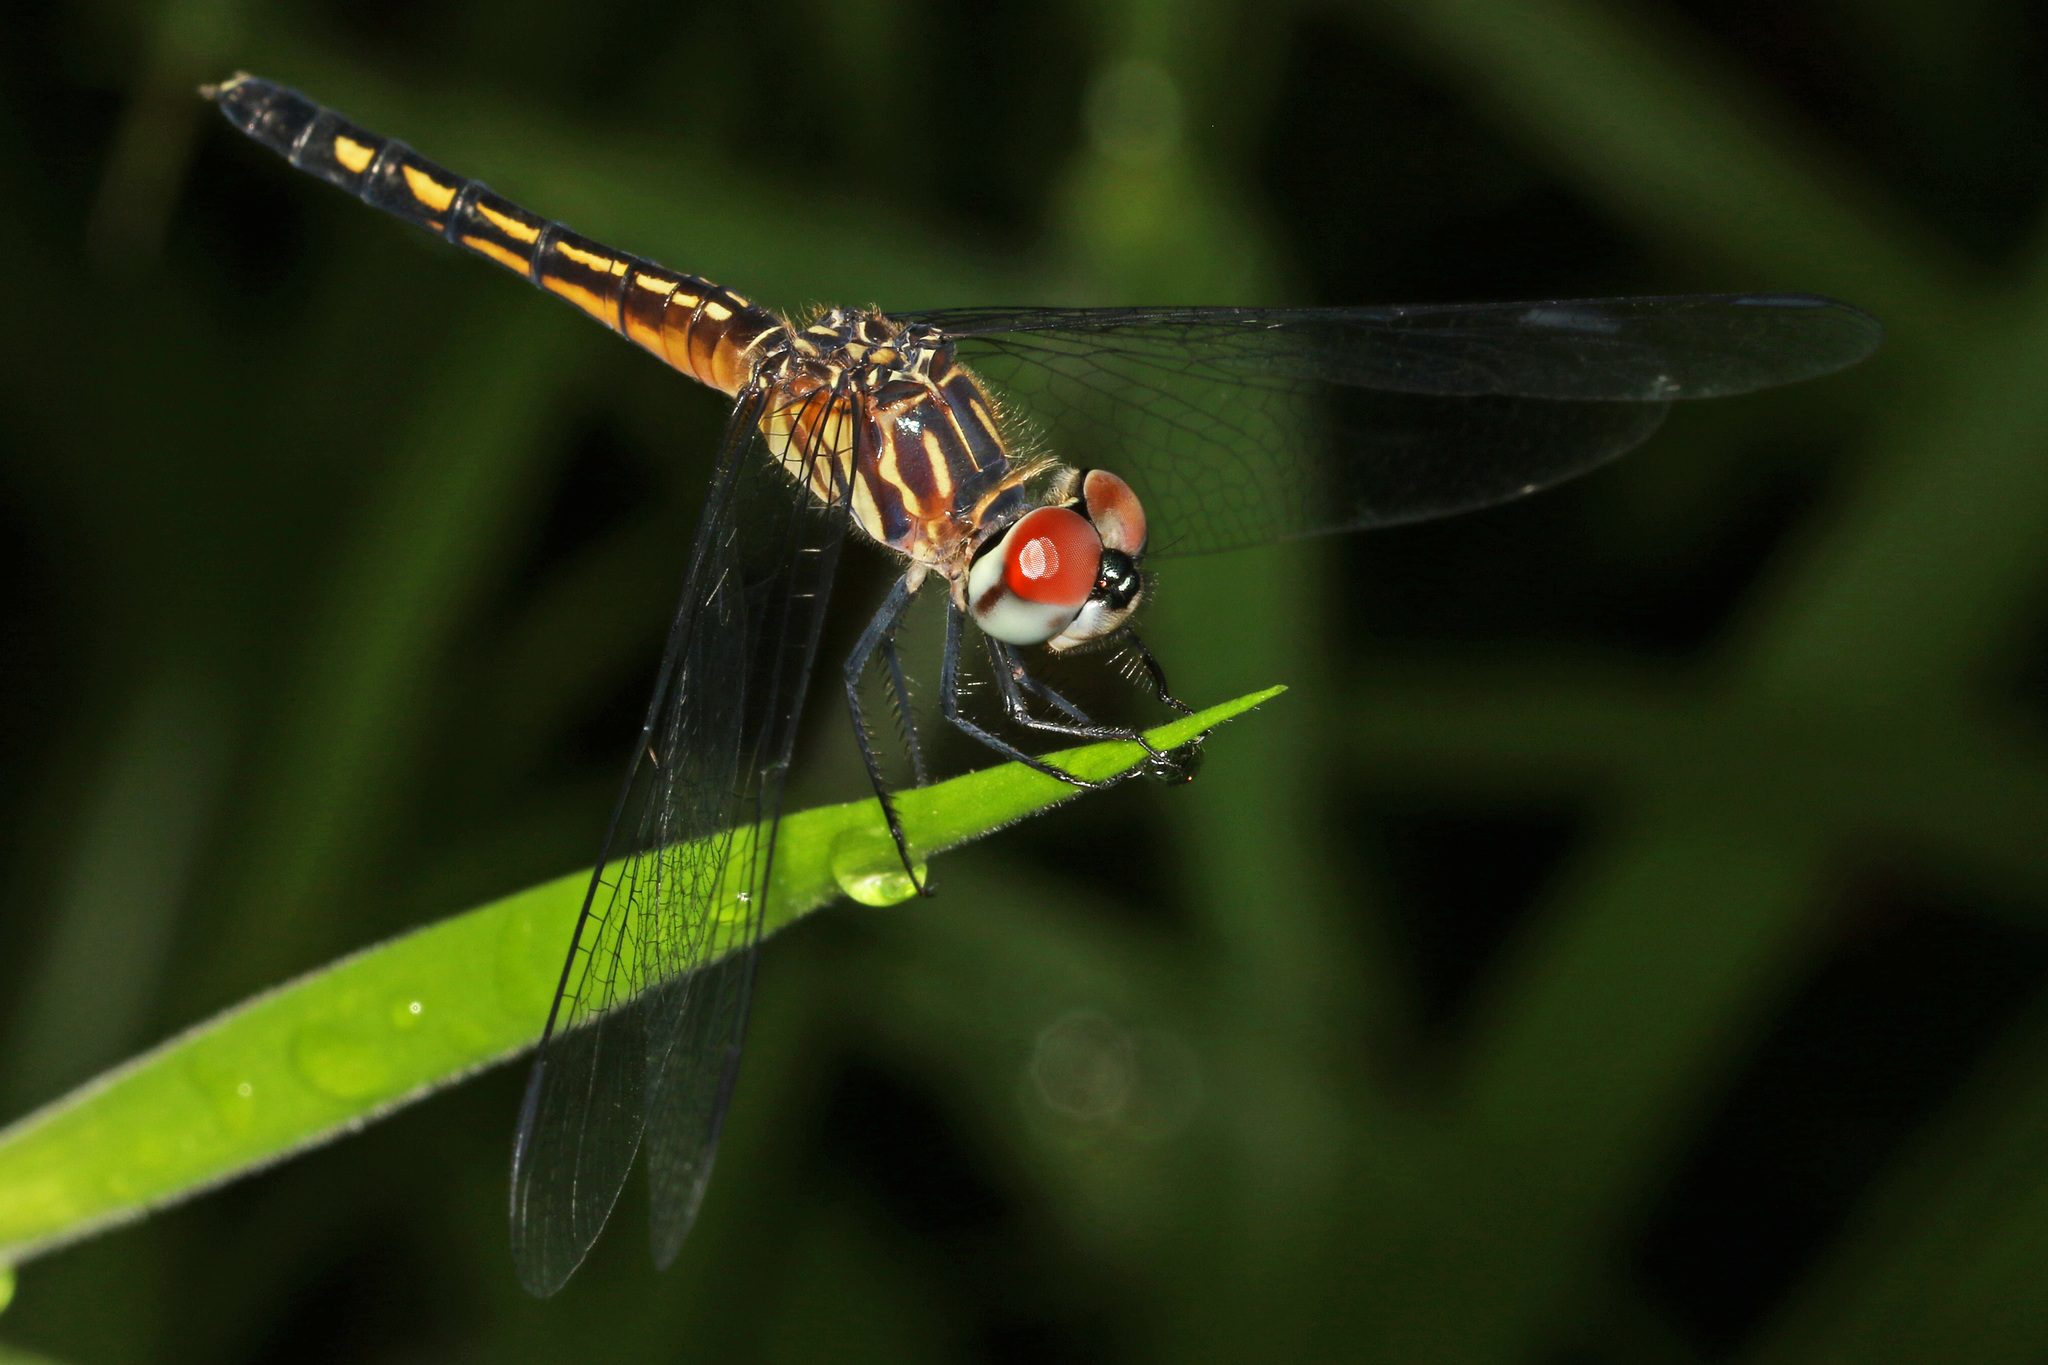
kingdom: Animalia
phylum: Arthropoda
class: Insecta
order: Odonata
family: Libellulidae
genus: Pachydiplax
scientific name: Pachydiplax longipennis
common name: Blue dasher
